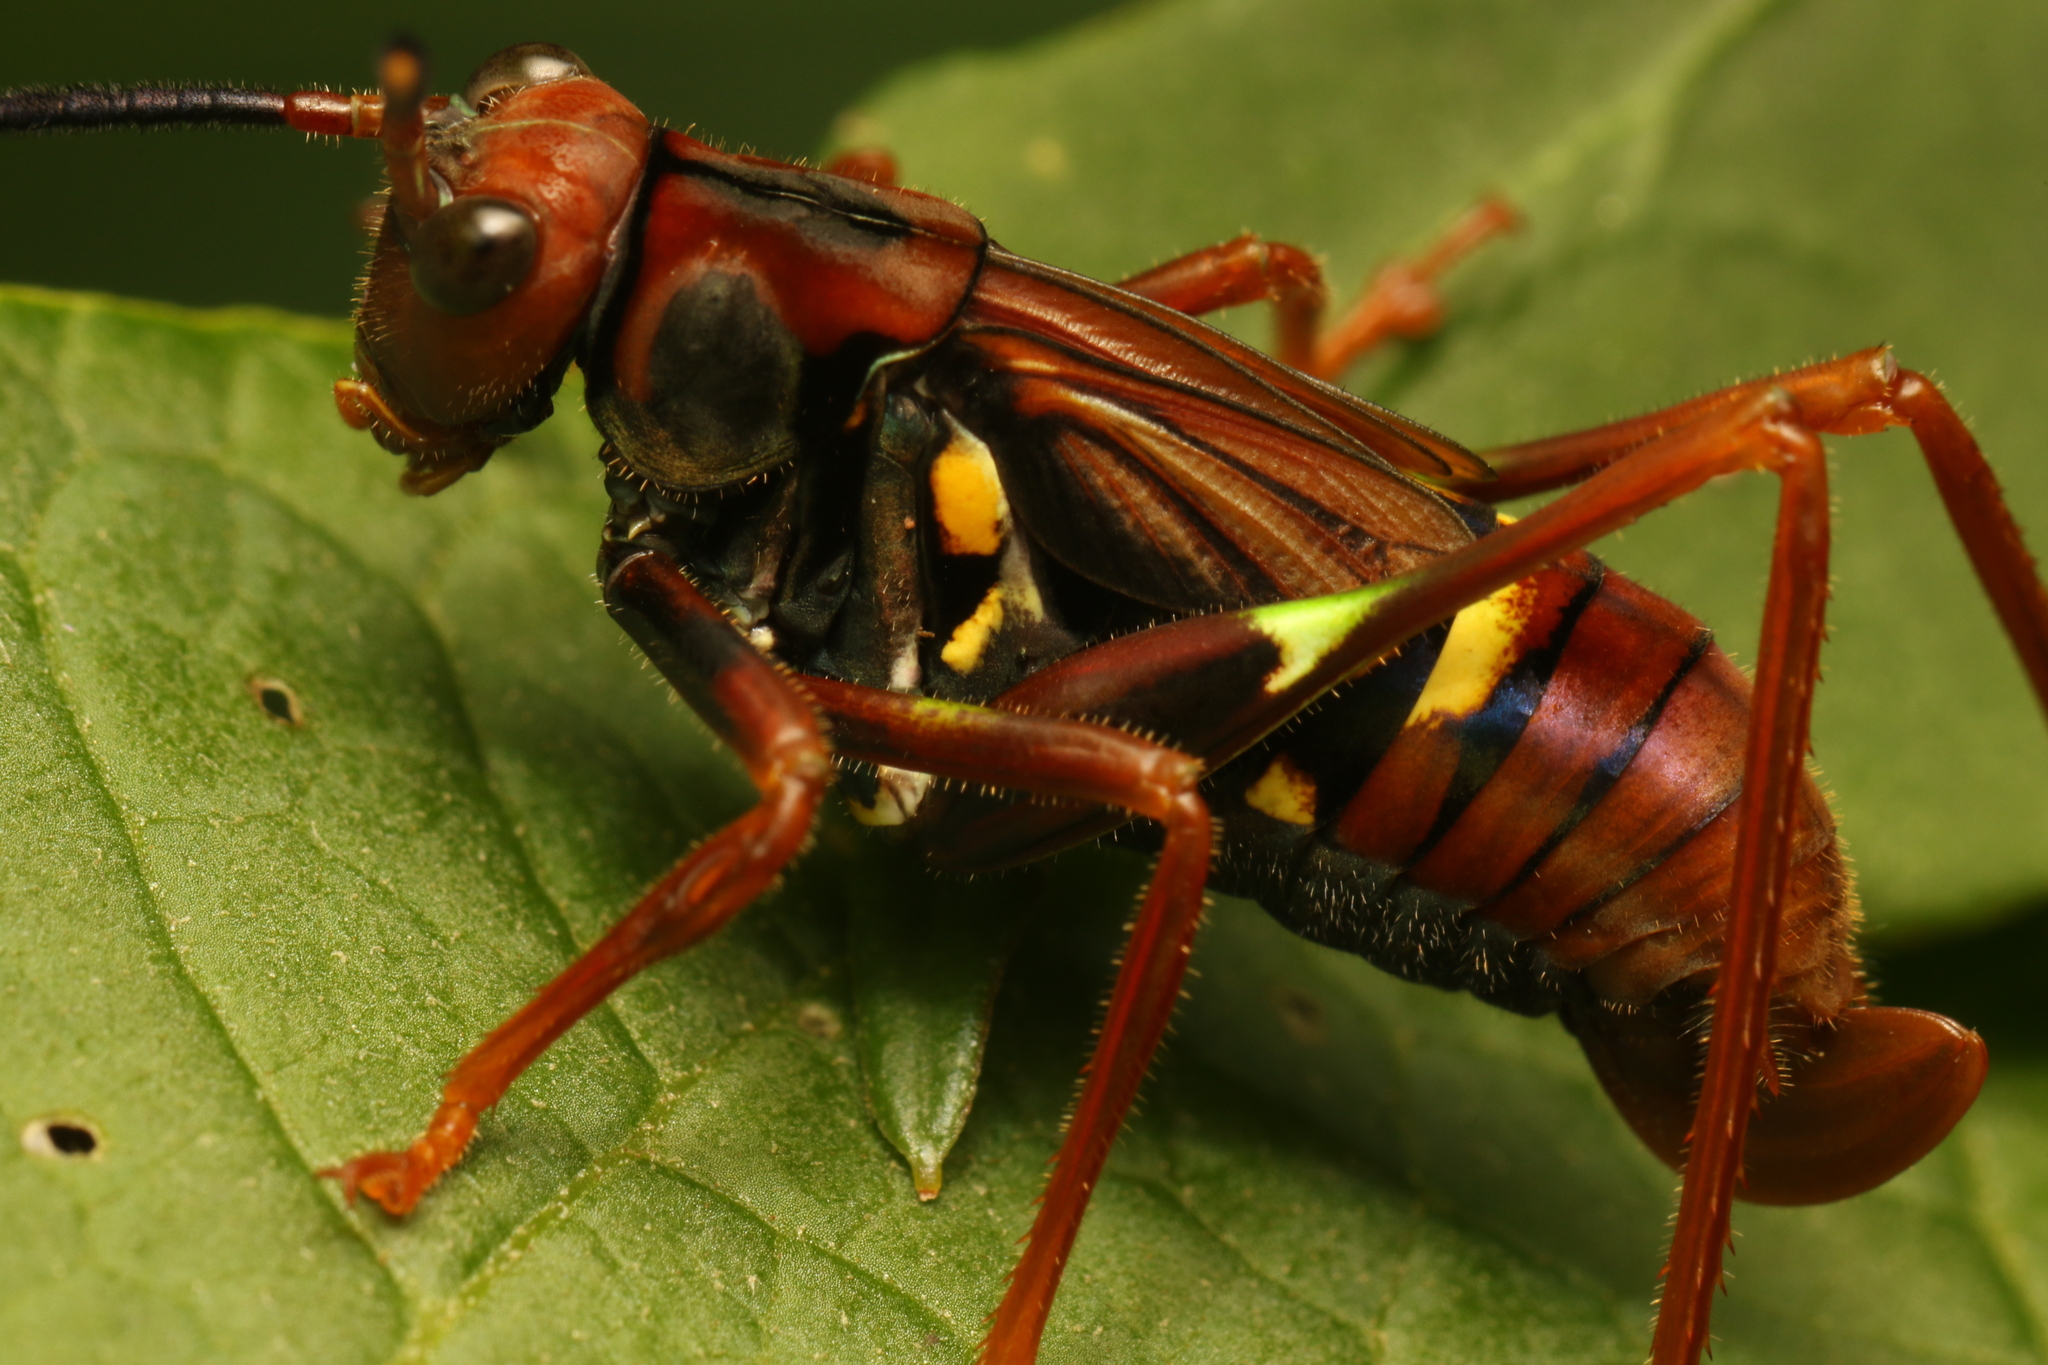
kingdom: Animalia
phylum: Arthropoda
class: Insecta
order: Orthoptera
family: Tettigoniidae
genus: Scaphura
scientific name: Scaphura nigra
